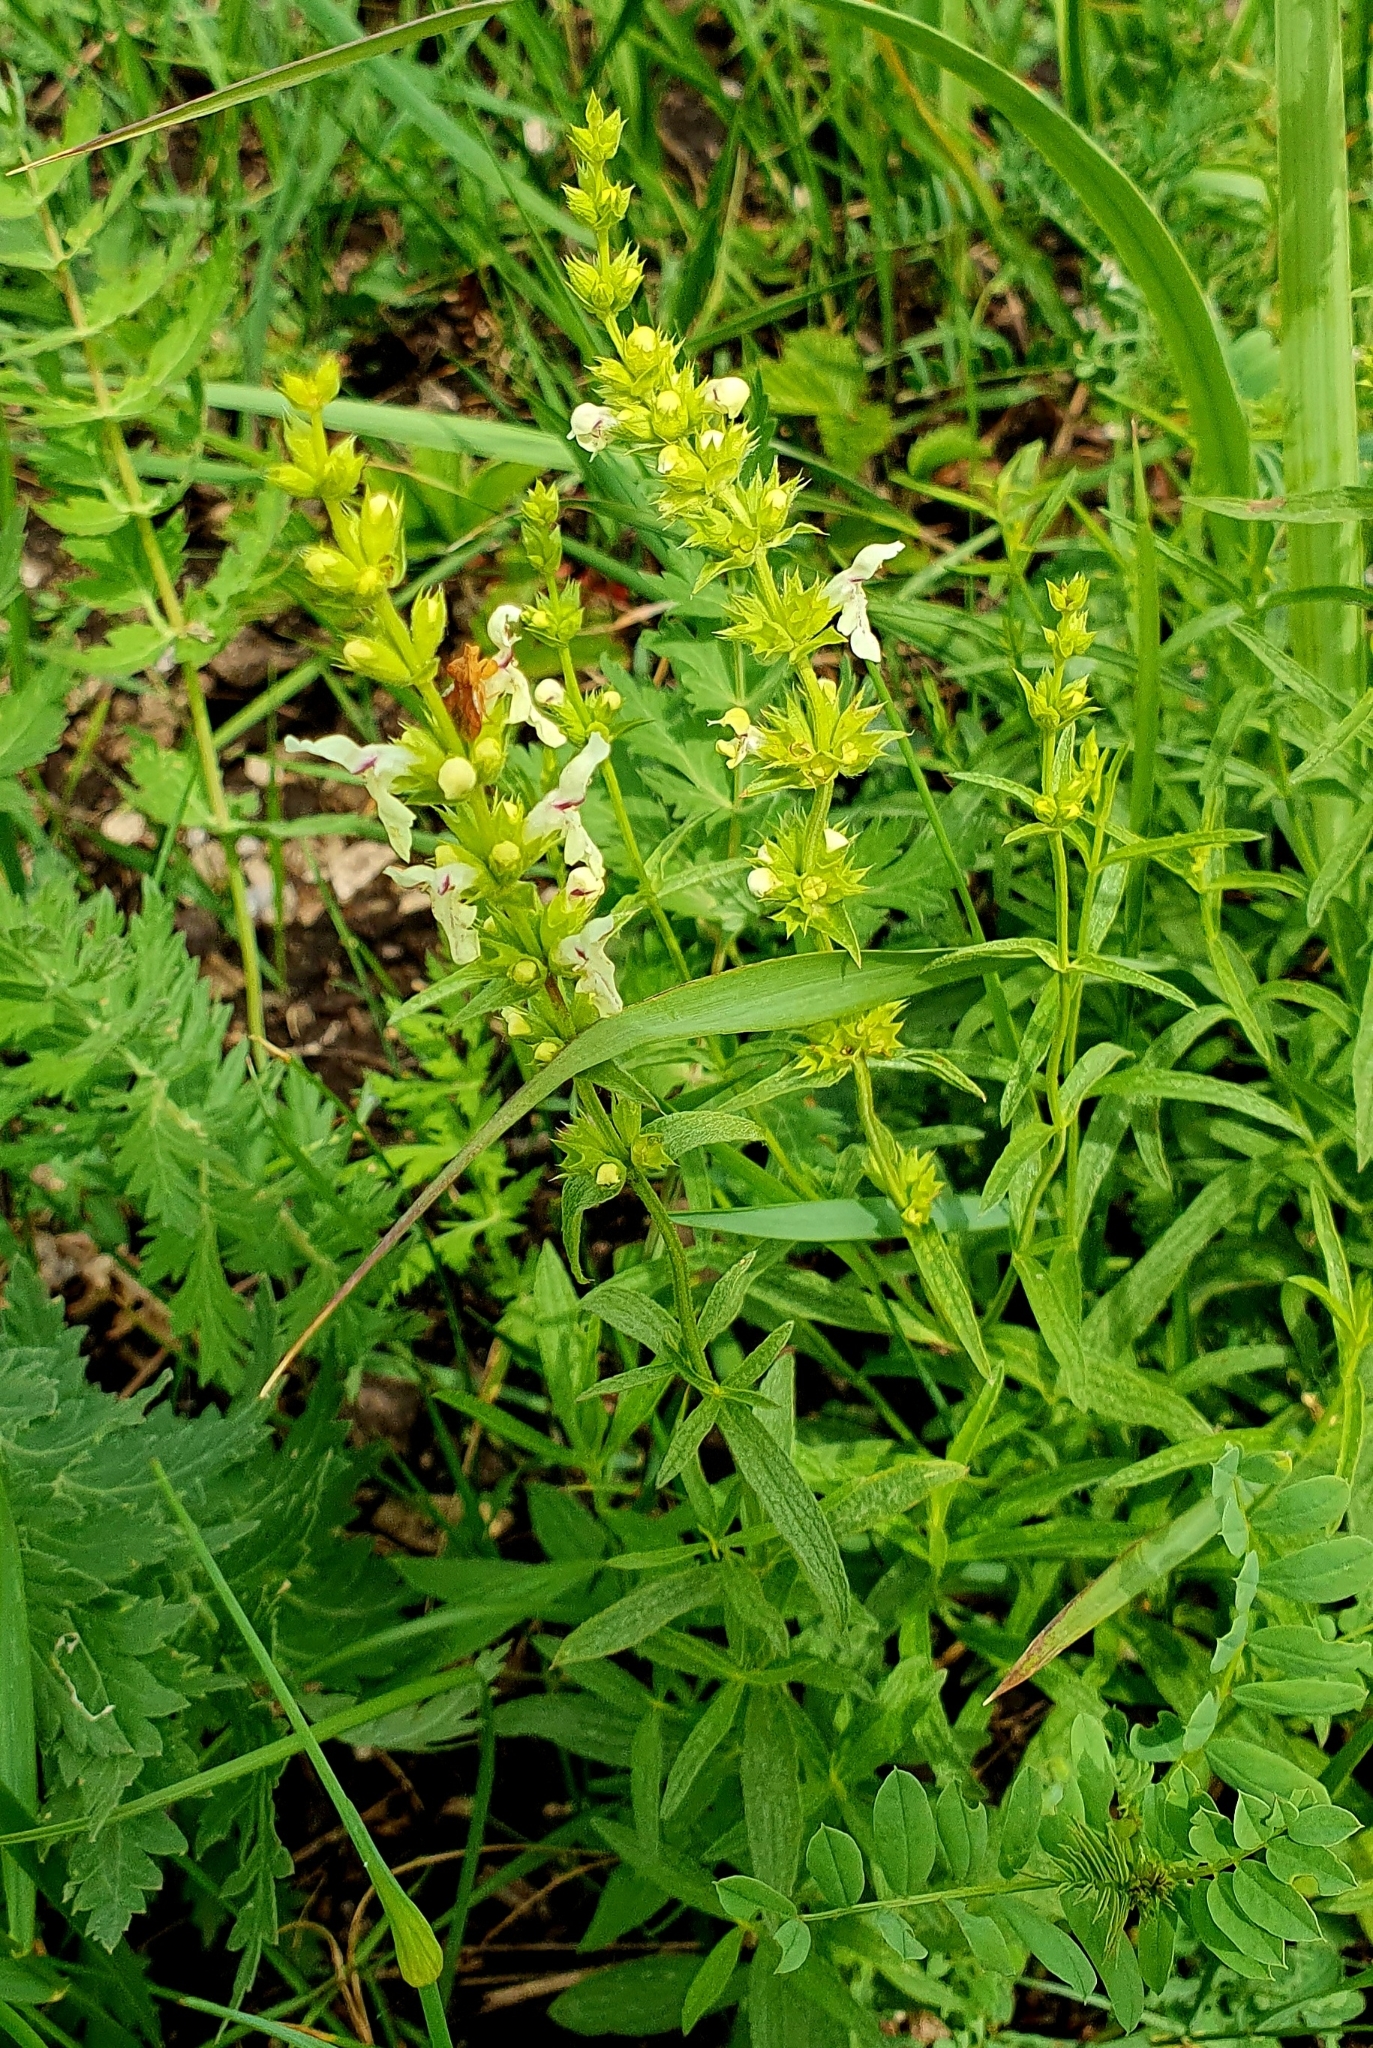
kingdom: Plantae
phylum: Tracheophyta
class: Magnoliopsida
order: Lamiales
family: Lamiaceae
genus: Stachys
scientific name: Stachys recta
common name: Perennial yellow-woundwort
